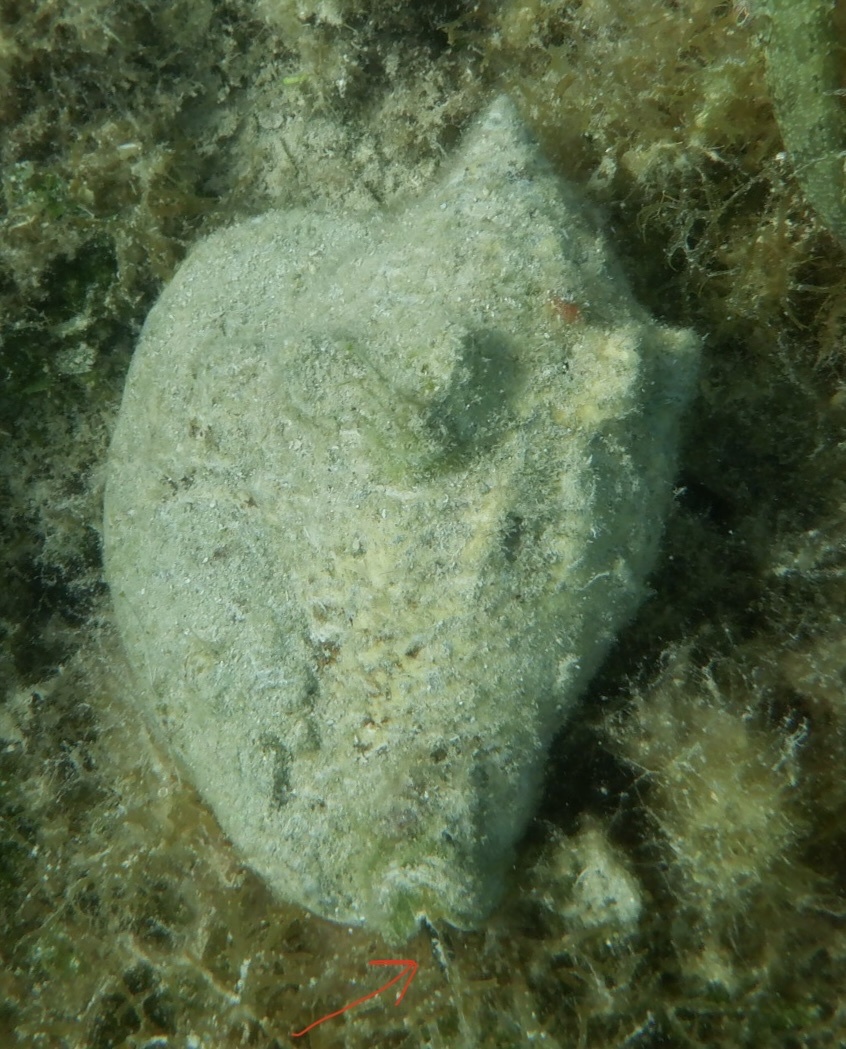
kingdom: Animalia
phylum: Mollusca
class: Gastropoda
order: Littorinimorpha
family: Strombidae
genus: Macrostrombus
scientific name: Macrostrombus costatus
